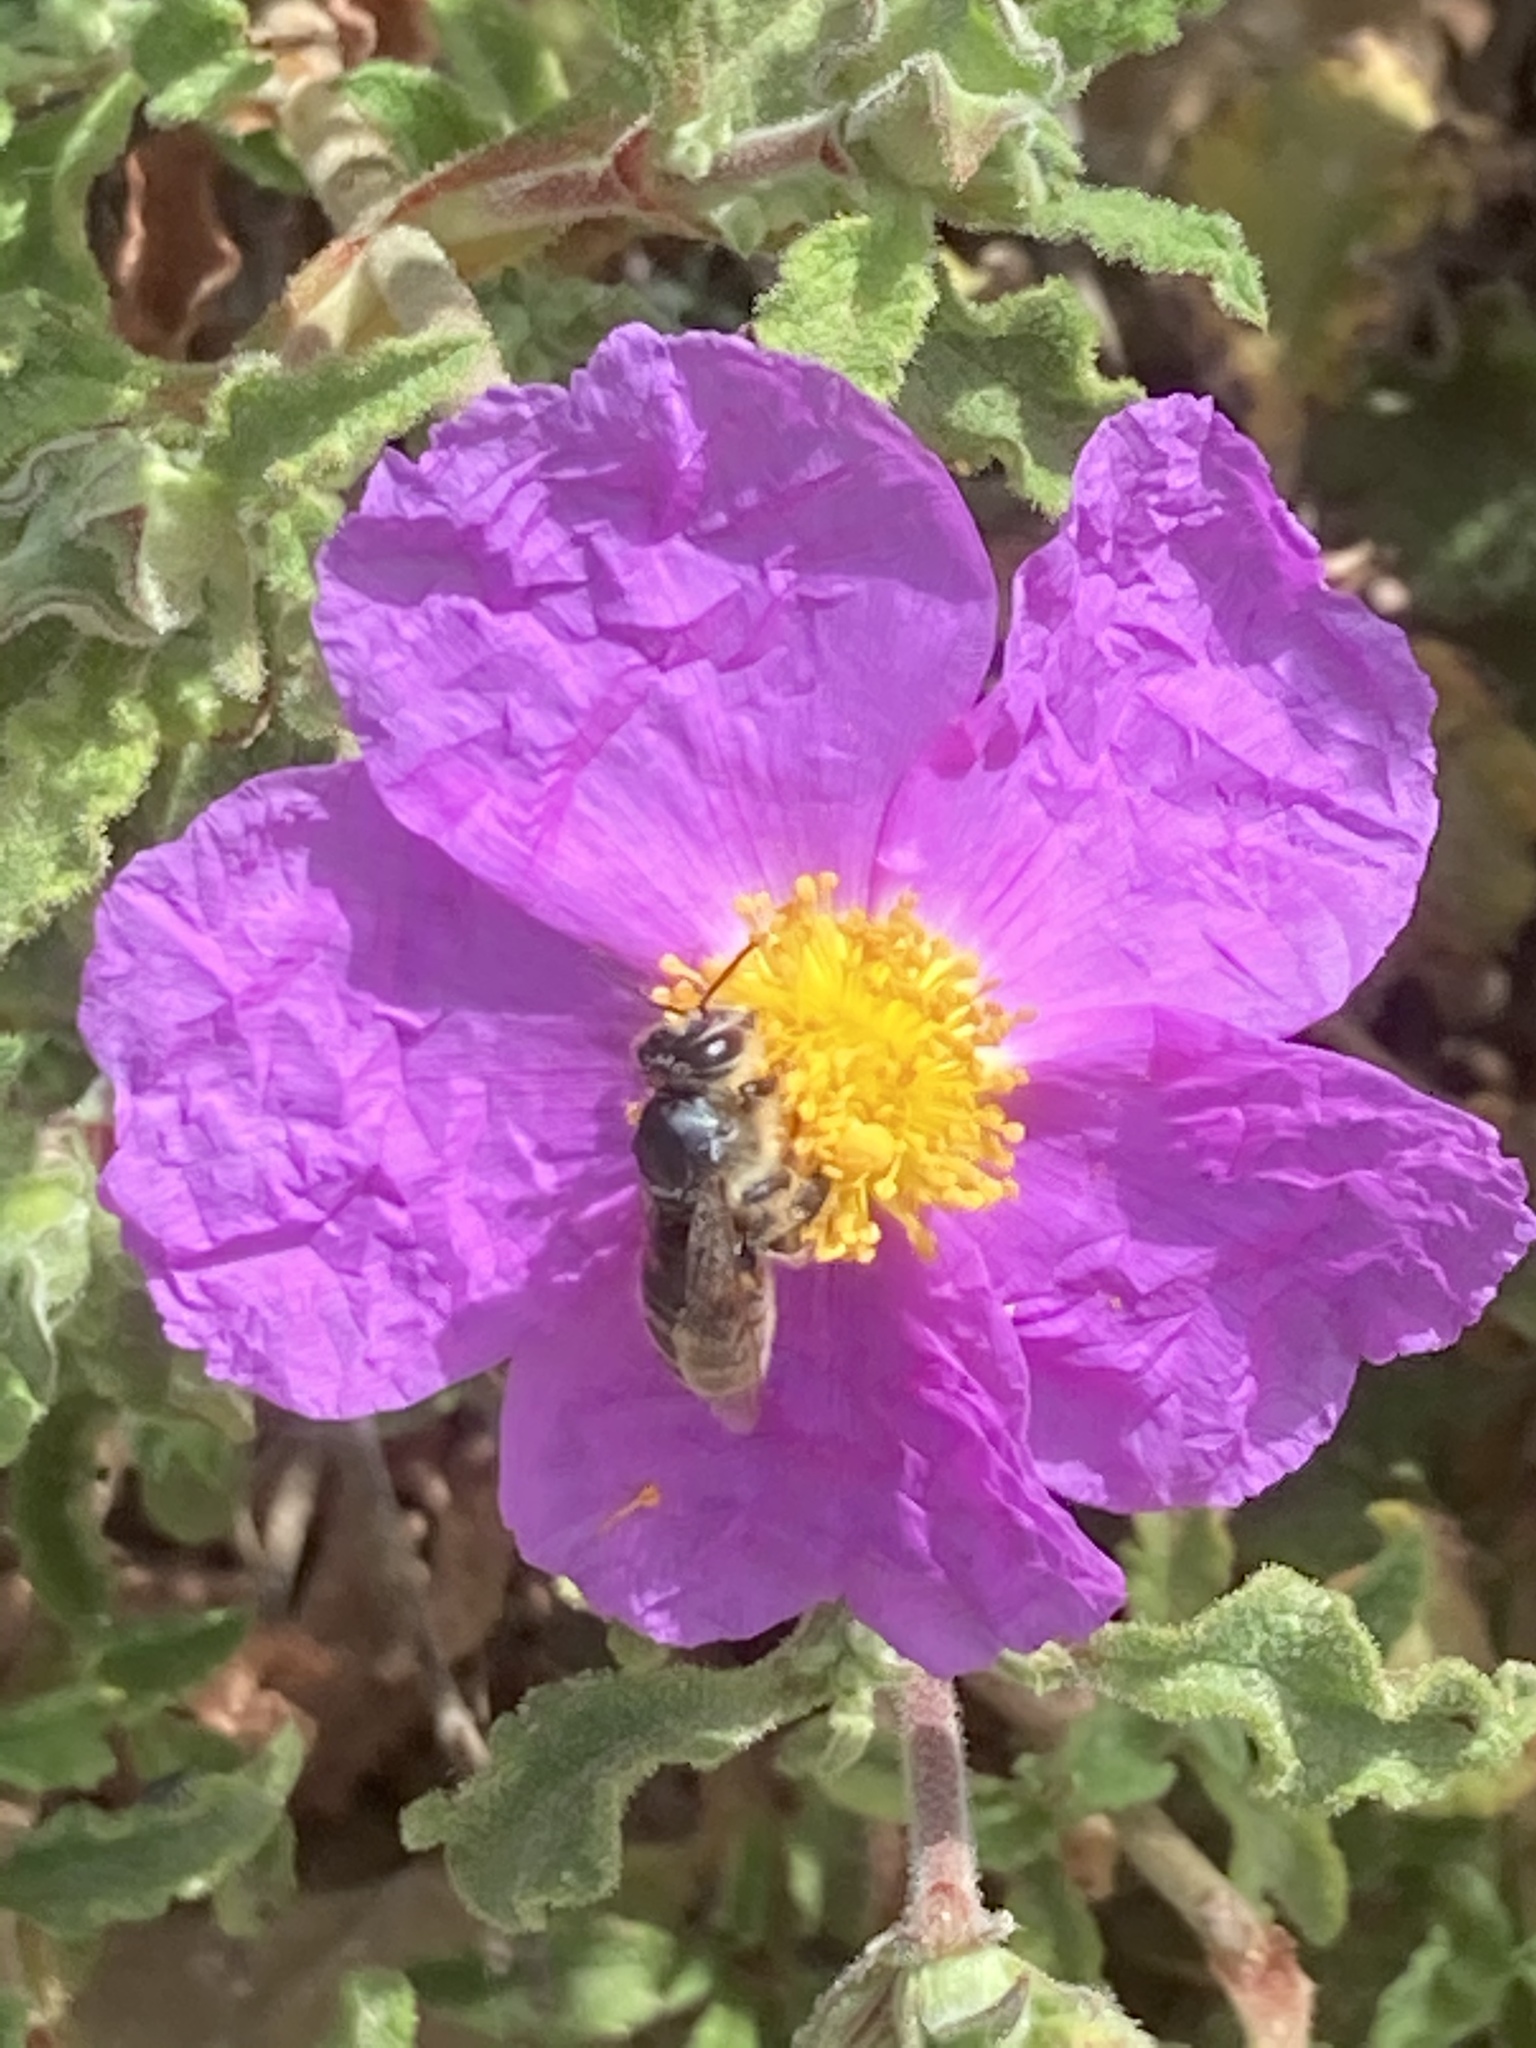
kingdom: Plantae
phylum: Tracheophyta
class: Magnoliopsida
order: Malvales
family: Cistaceae
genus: Cistus
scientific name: Cistus creticus
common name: Cretan rockrose
